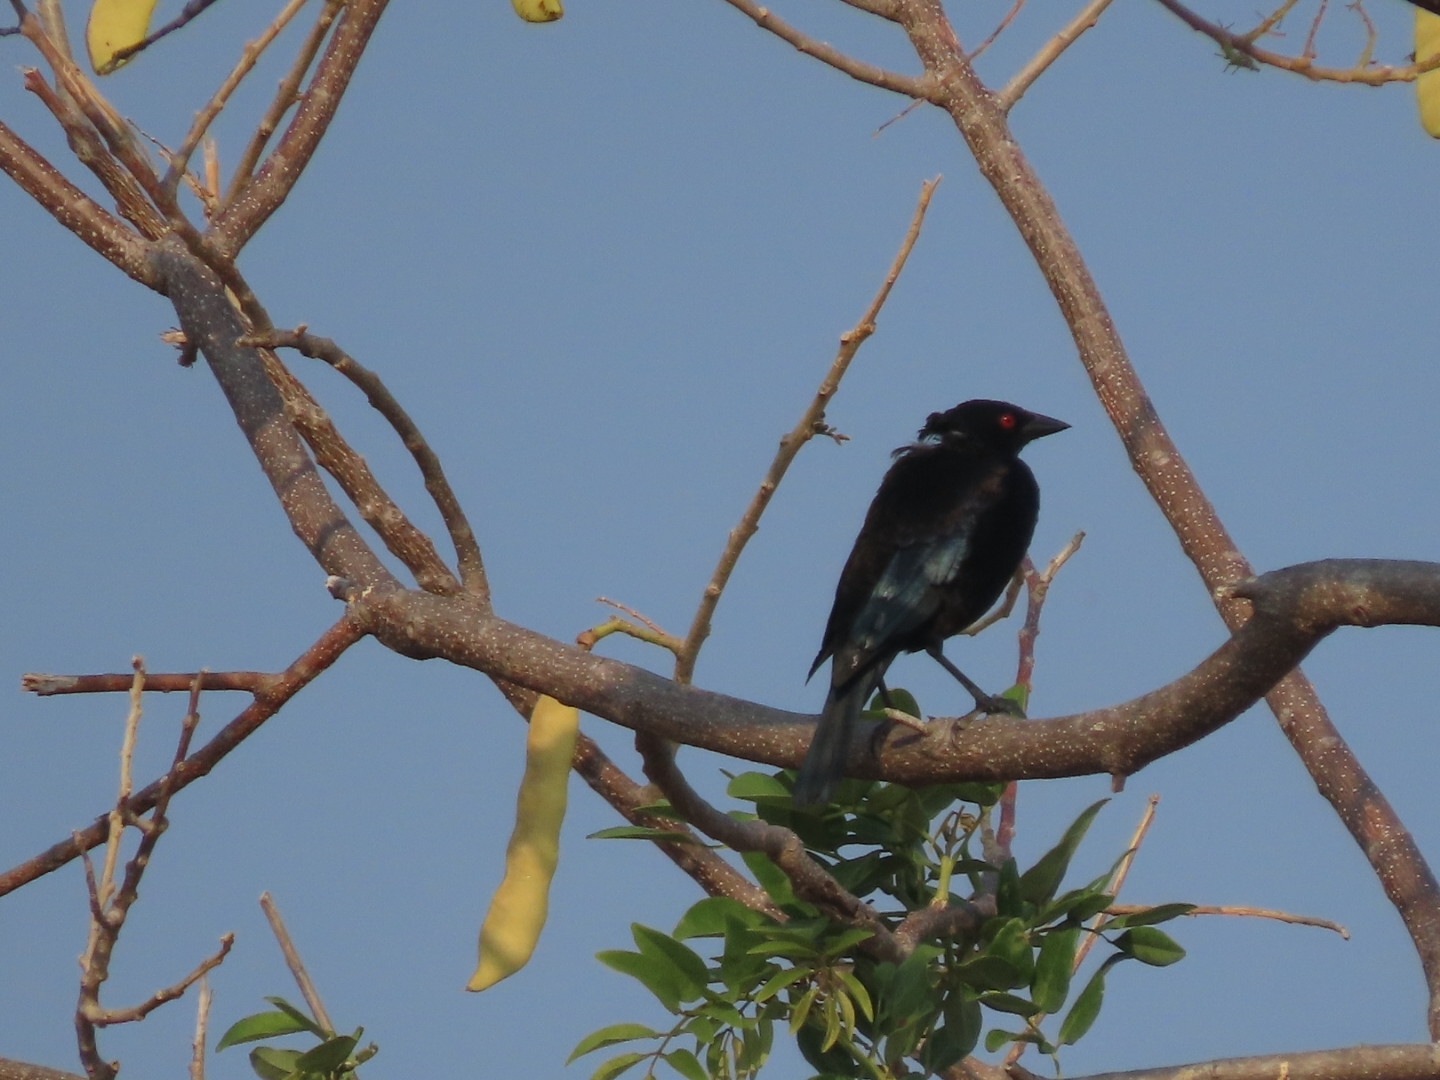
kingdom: Animalia
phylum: Chordata
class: Aves
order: Passeriformes
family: Icteridae
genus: Molothrus
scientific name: Molothrus aeneus
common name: Bronzed cowbird
